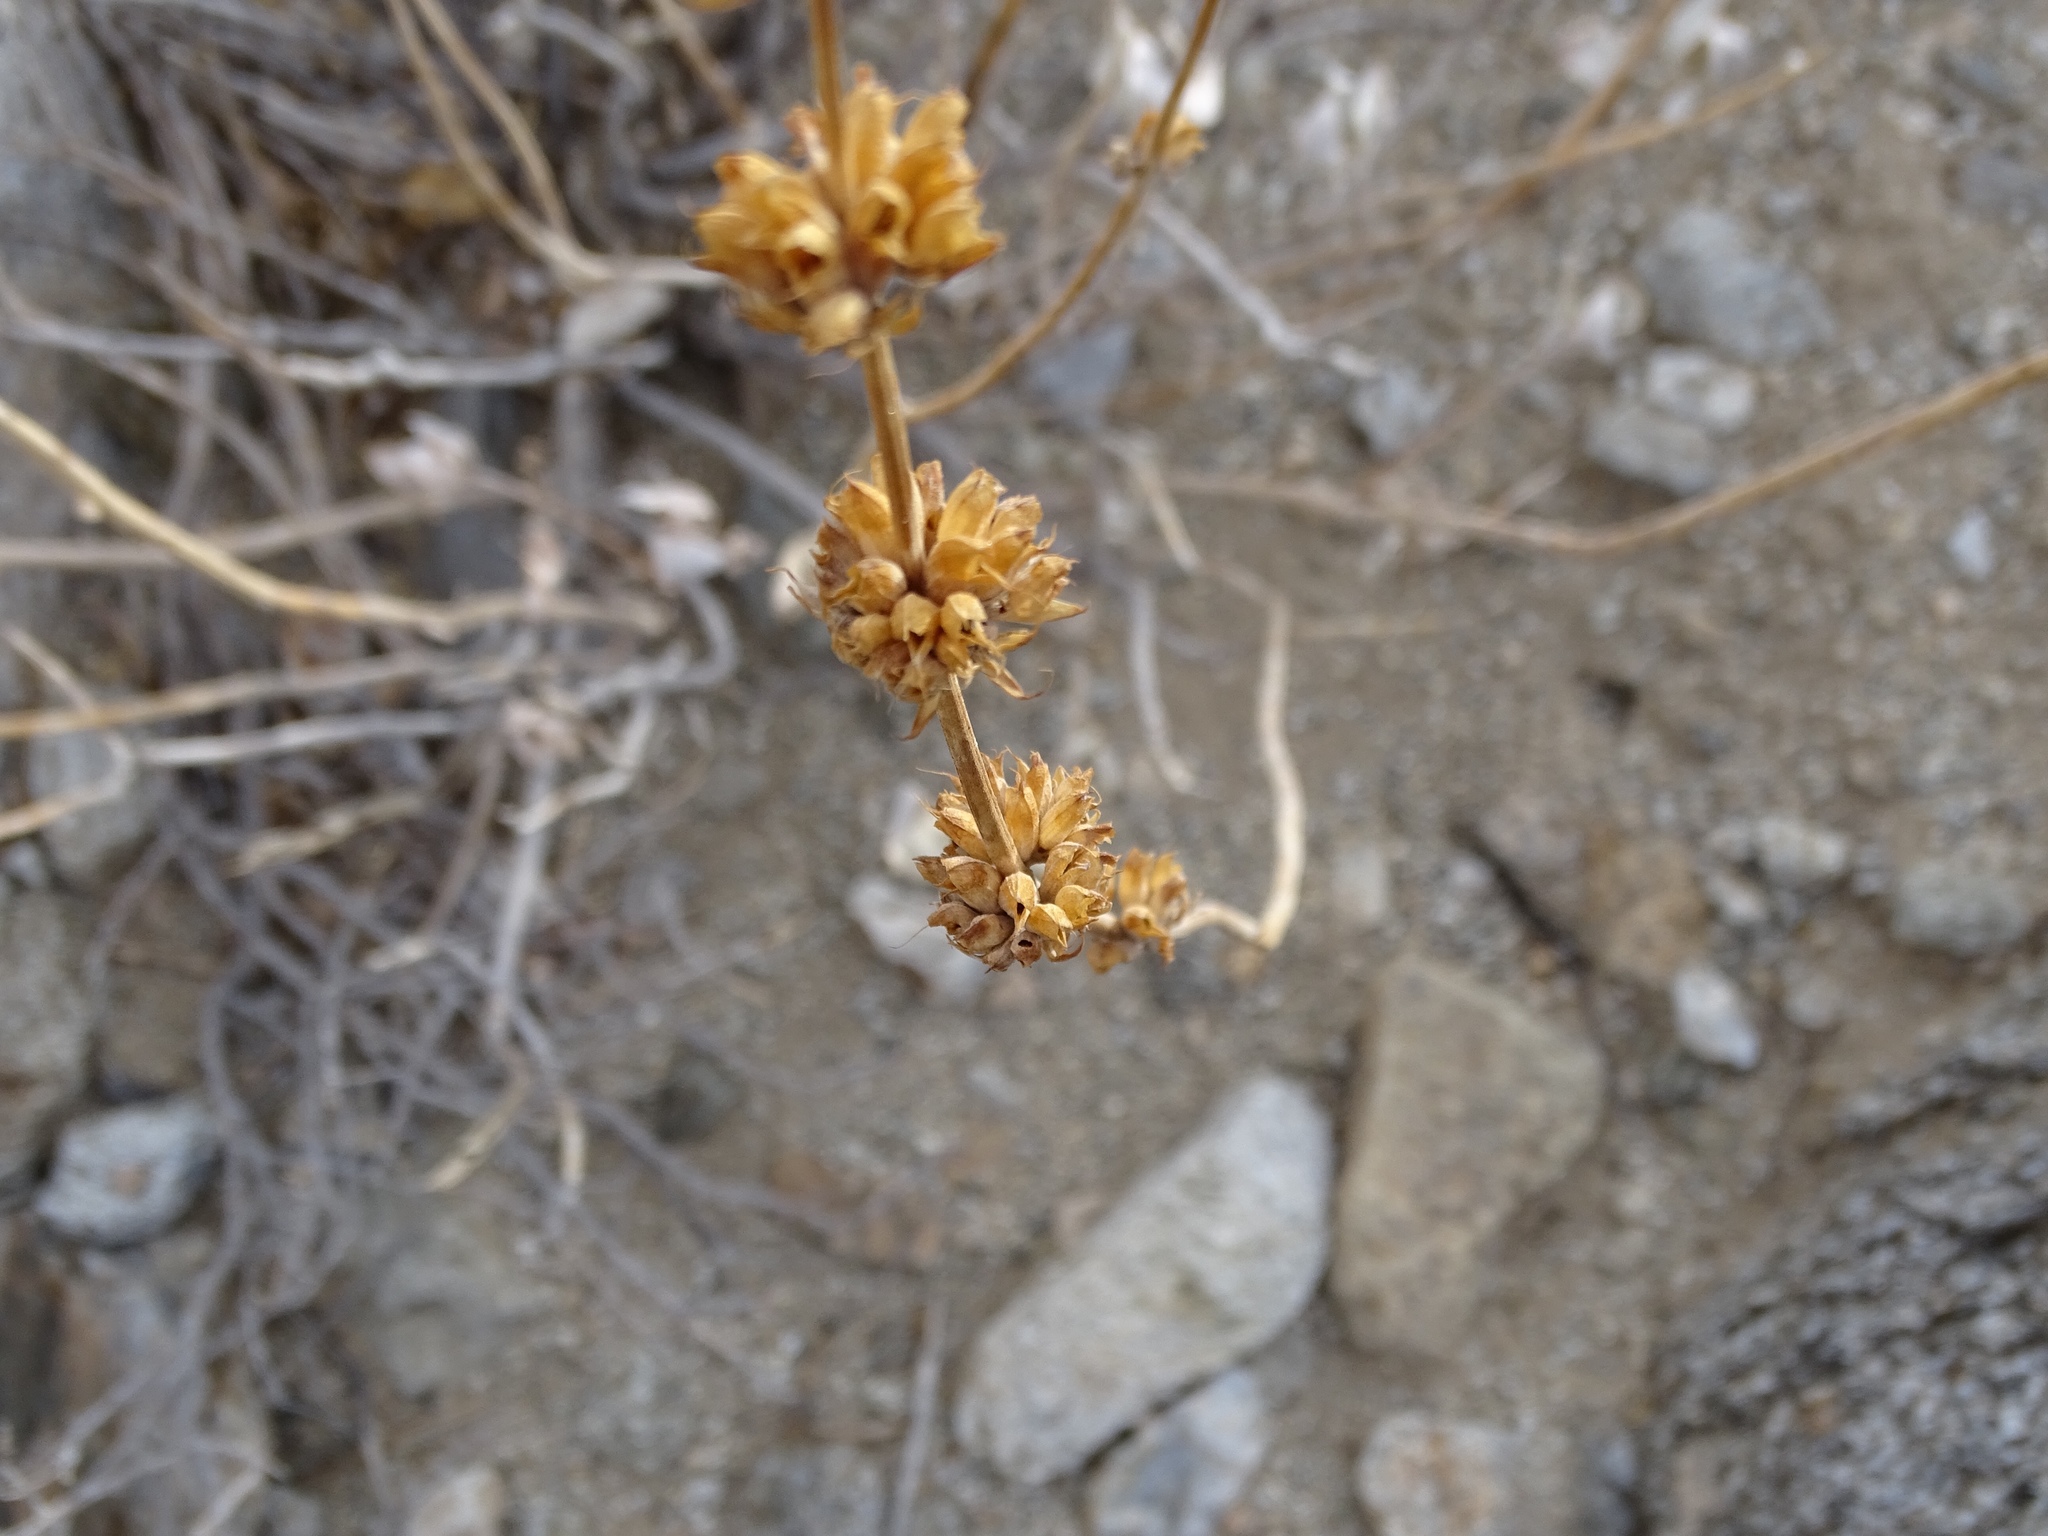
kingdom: Plantae
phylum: Tracheophyta
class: Magnoliopsida
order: Lamiales
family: Lamiaceae
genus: Salvia
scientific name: Salvia vaseyi
